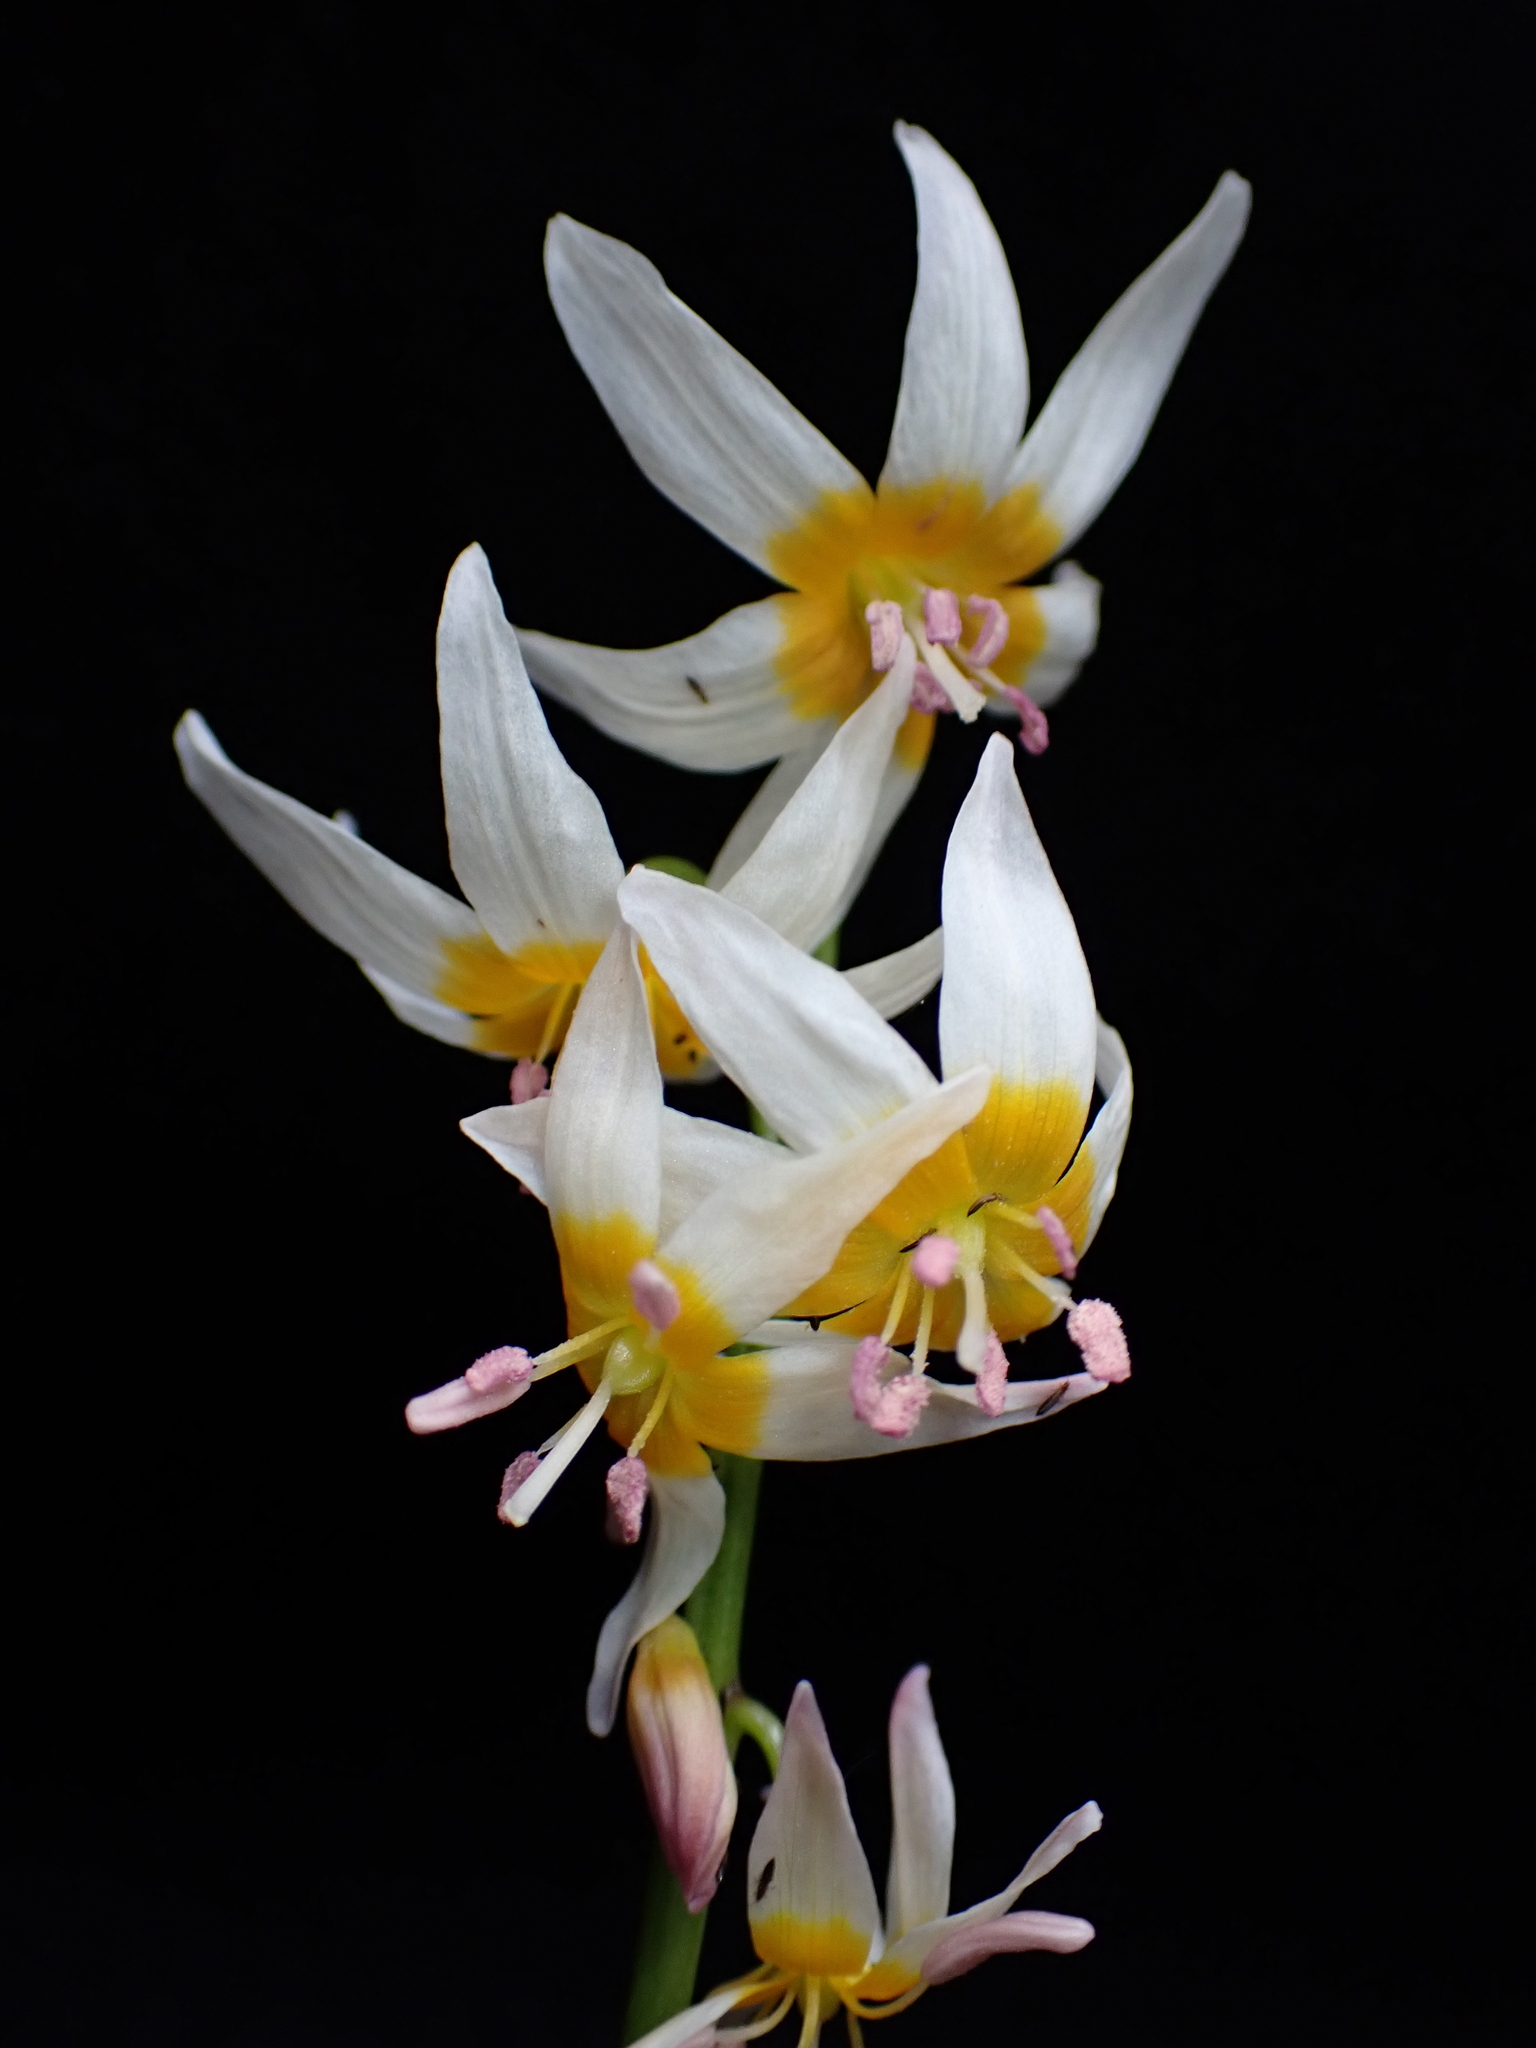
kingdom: Plantae
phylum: Tracheophyta
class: Liliopsida
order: Liliales
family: Liliaceae
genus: Erythronium
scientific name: Erythronium purpurascens
